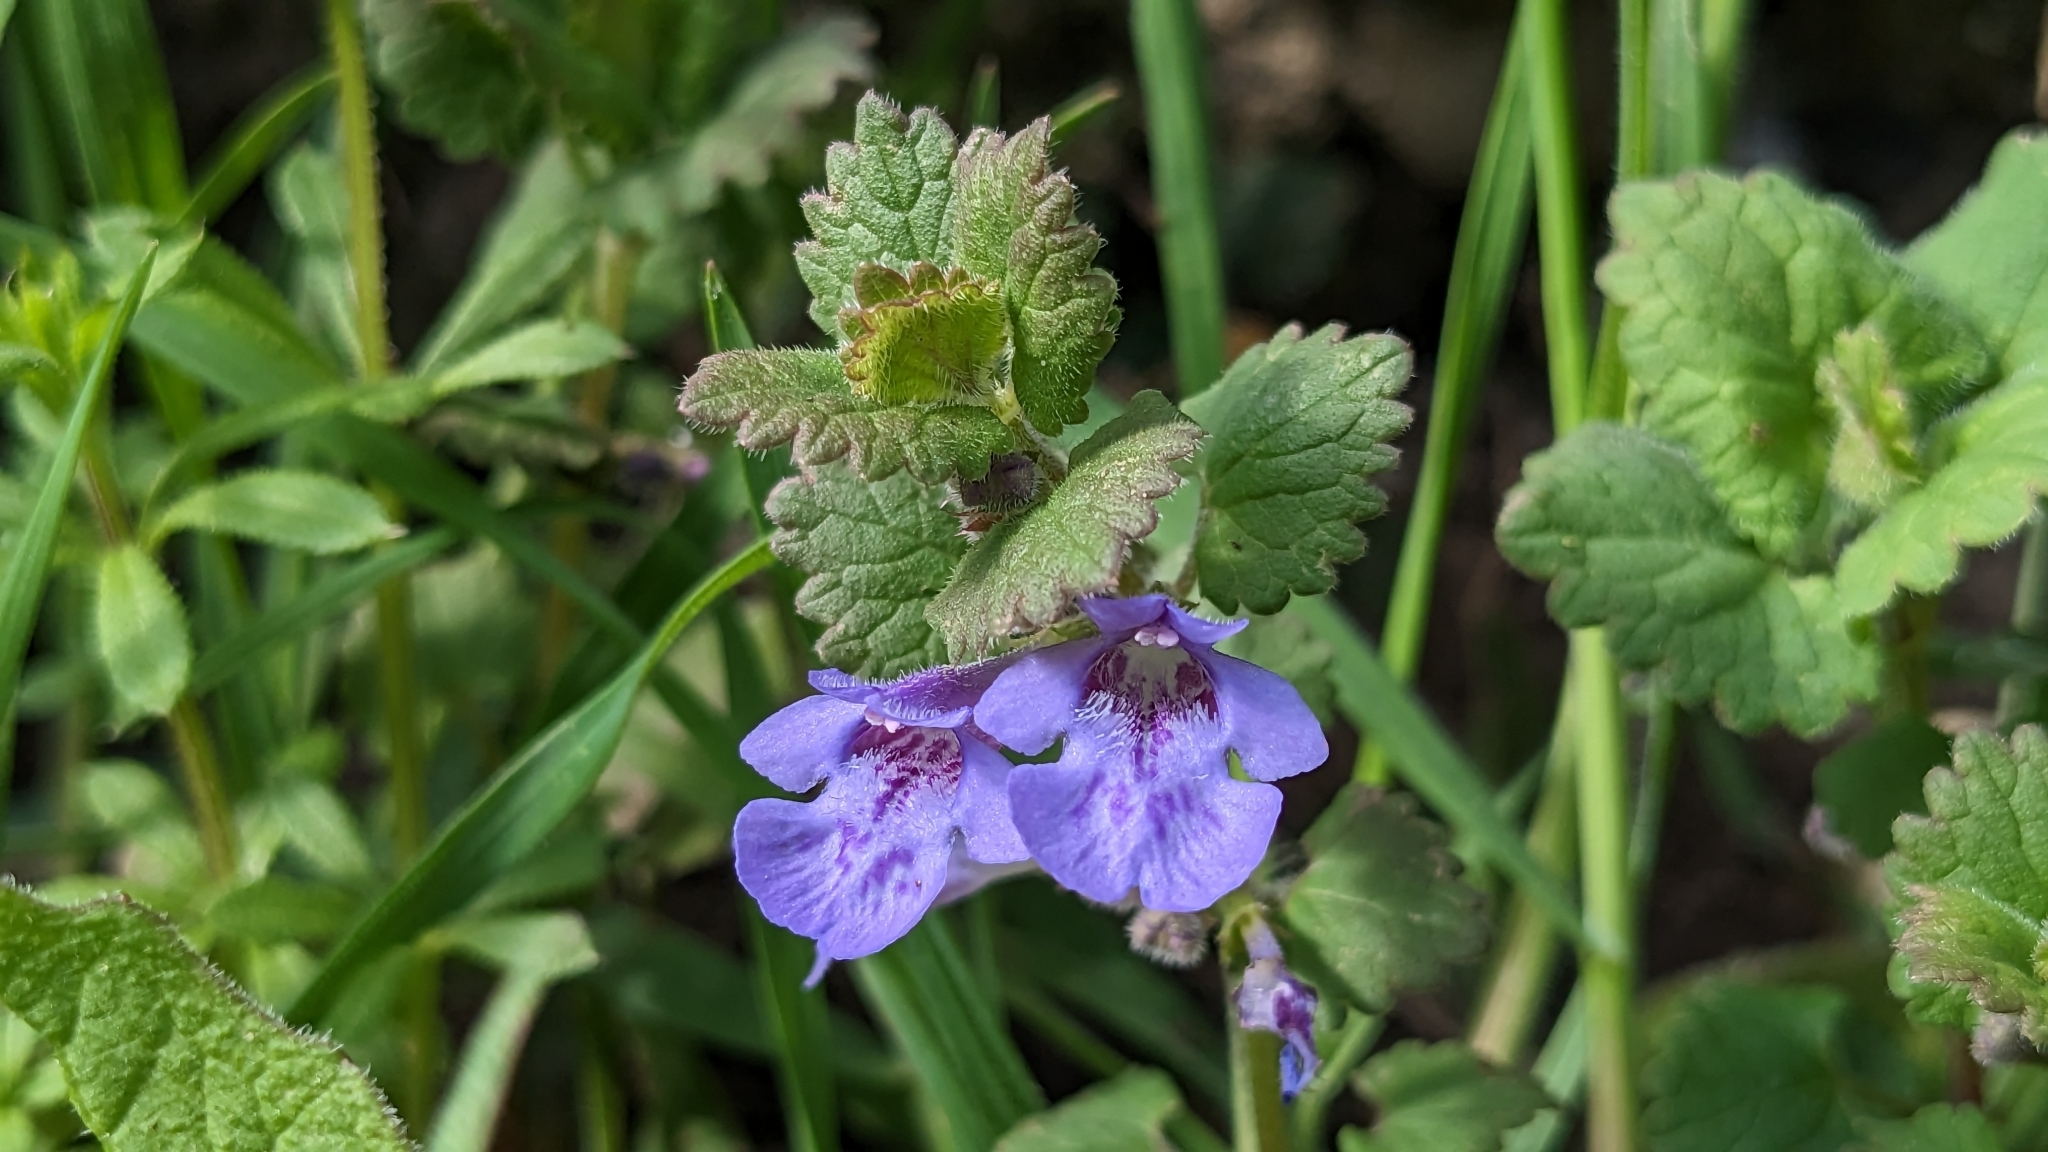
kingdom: Plantae
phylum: Tracheophyta
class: Magnoliopsida
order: Lamiales
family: Lamiaceae
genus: Glechoma
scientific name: Glechoma hederacea
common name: Ground ivy
